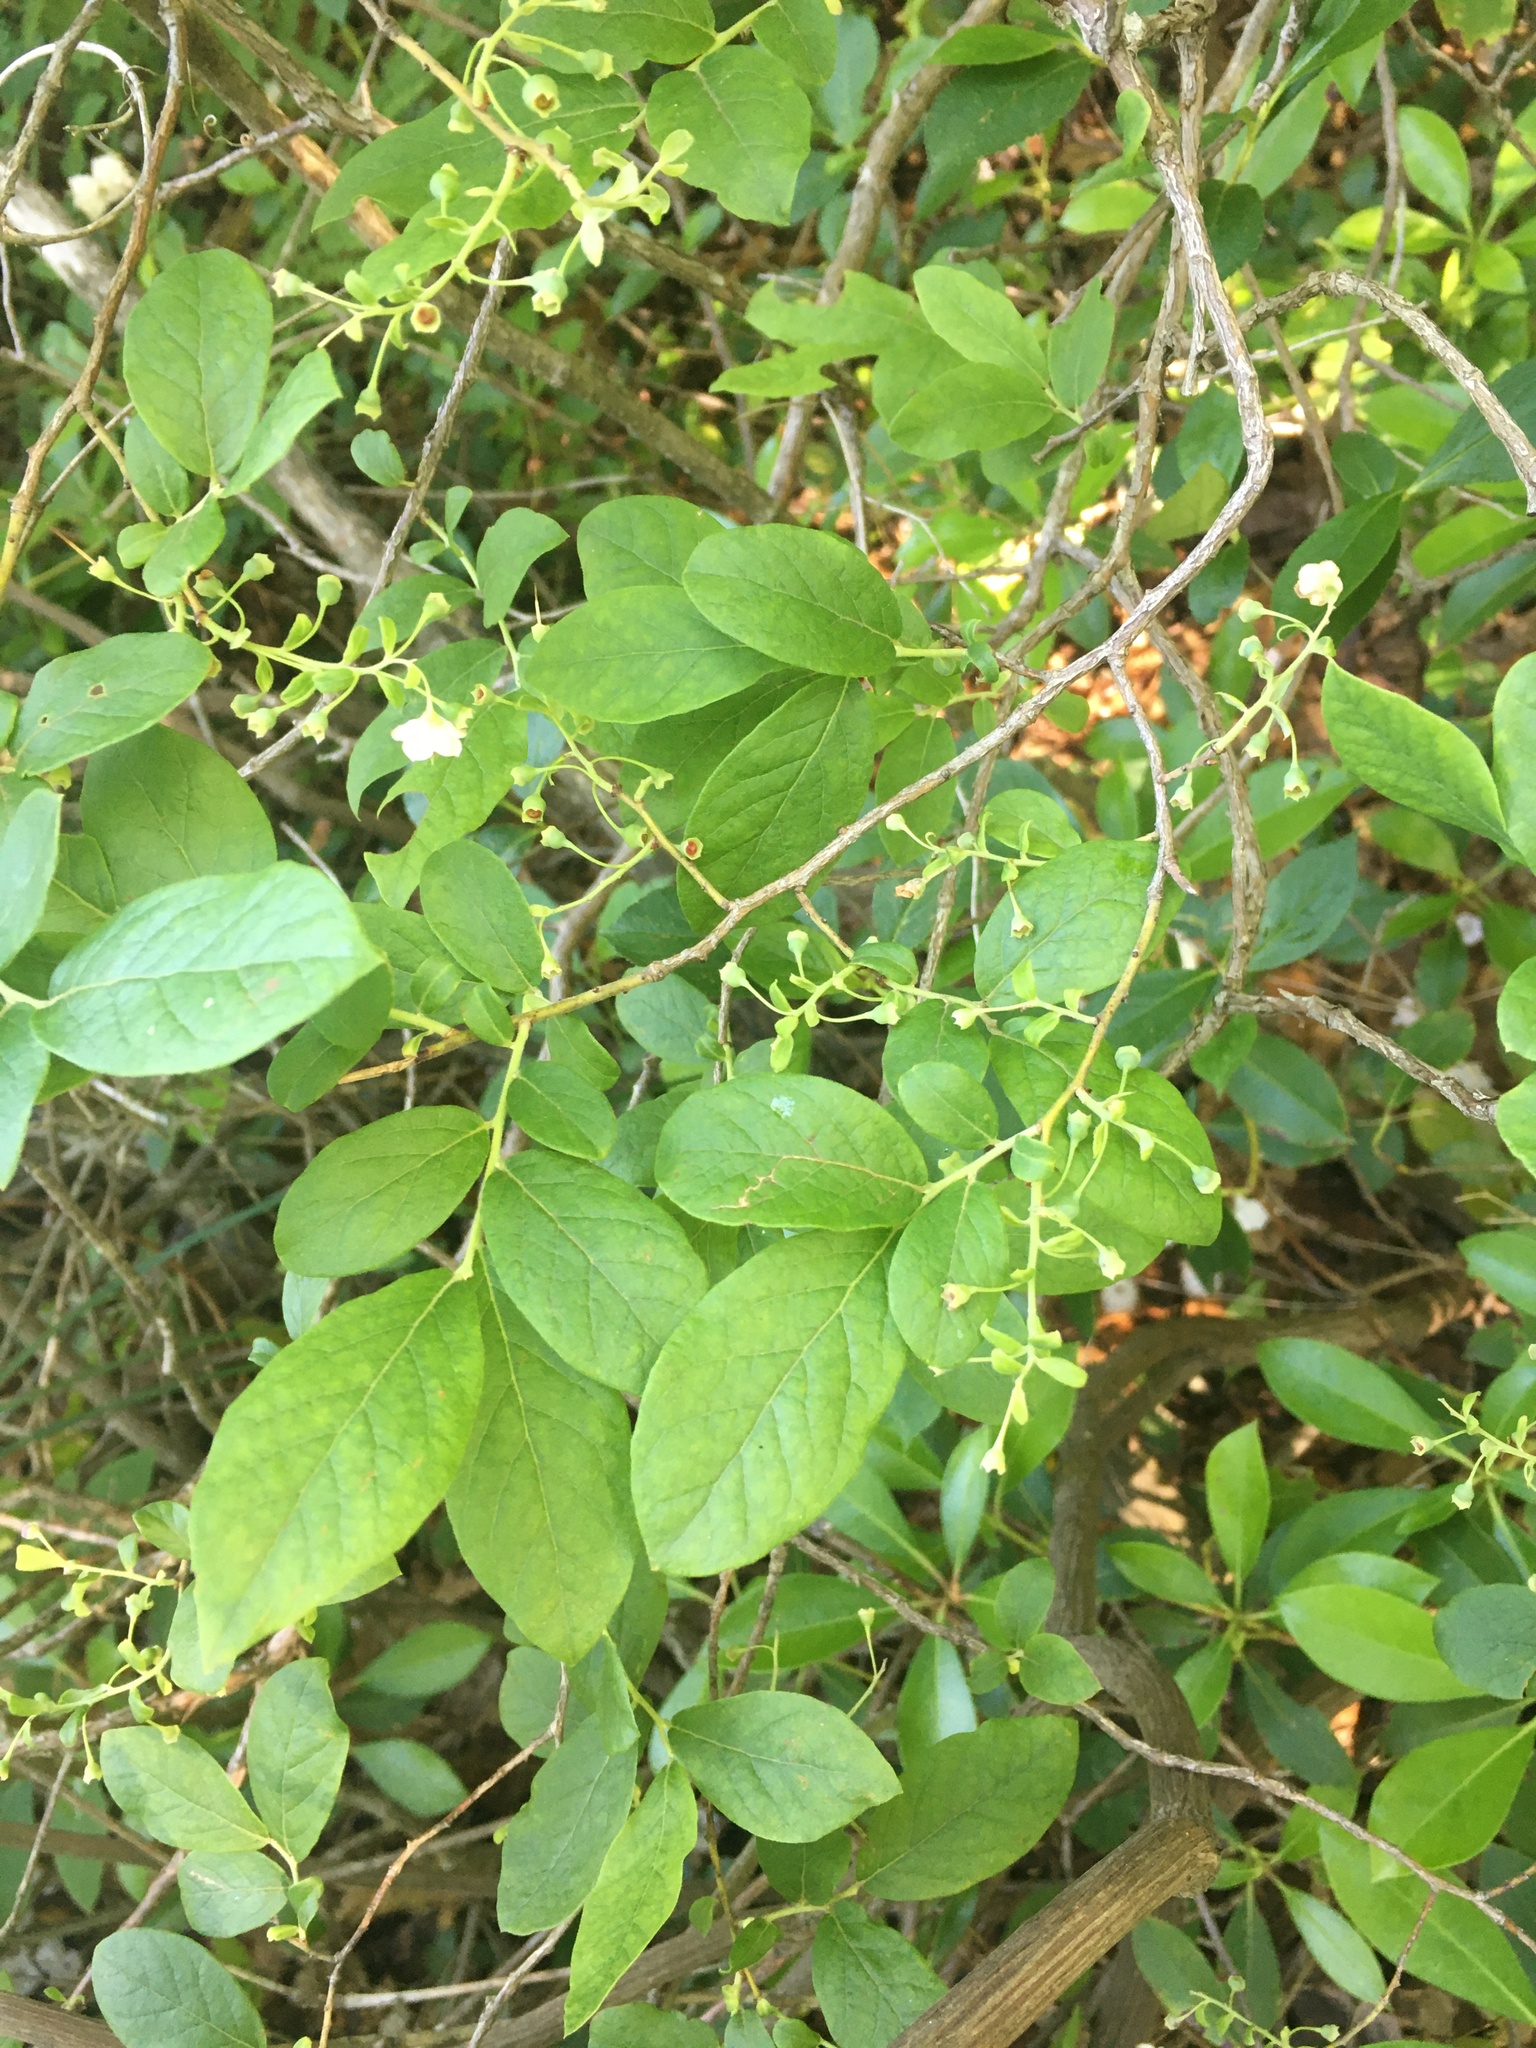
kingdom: Plantae
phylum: Tracheophyta
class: Magnoliopsida
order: Ericales
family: Ericaceae
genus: Vaccinium
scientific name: Vaccinium stamineum
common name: Deerberry
